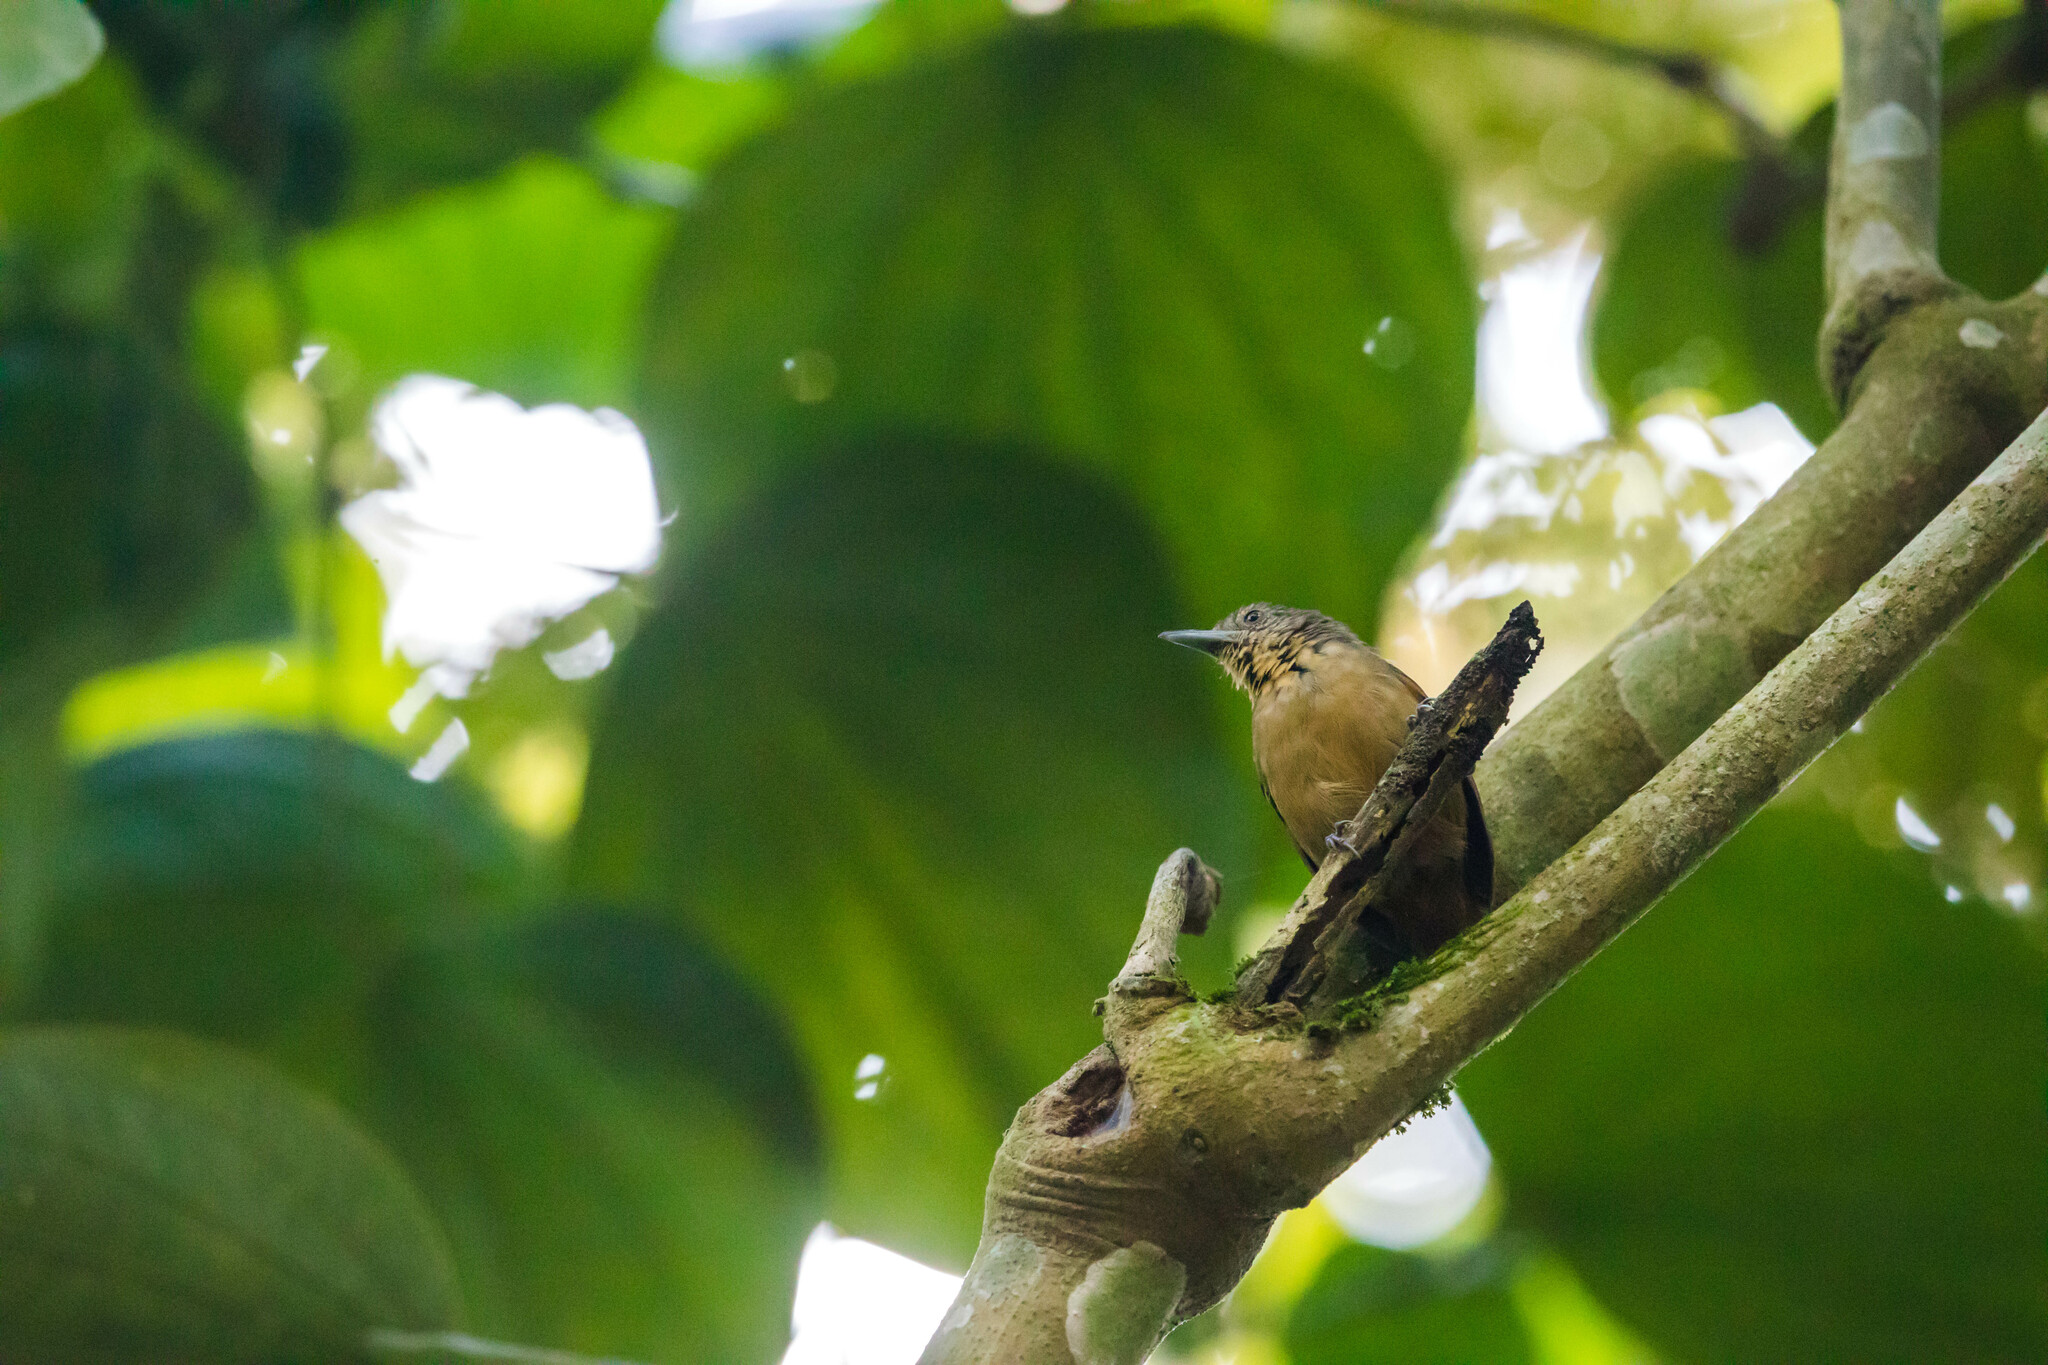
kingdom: Animalia
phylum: Chordata
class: Aves
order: Passeriformes
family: Thamnophilidae
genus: Epinecrophylla
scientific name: Epinecrophylla fulviventris
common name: Checker-throated antwren
